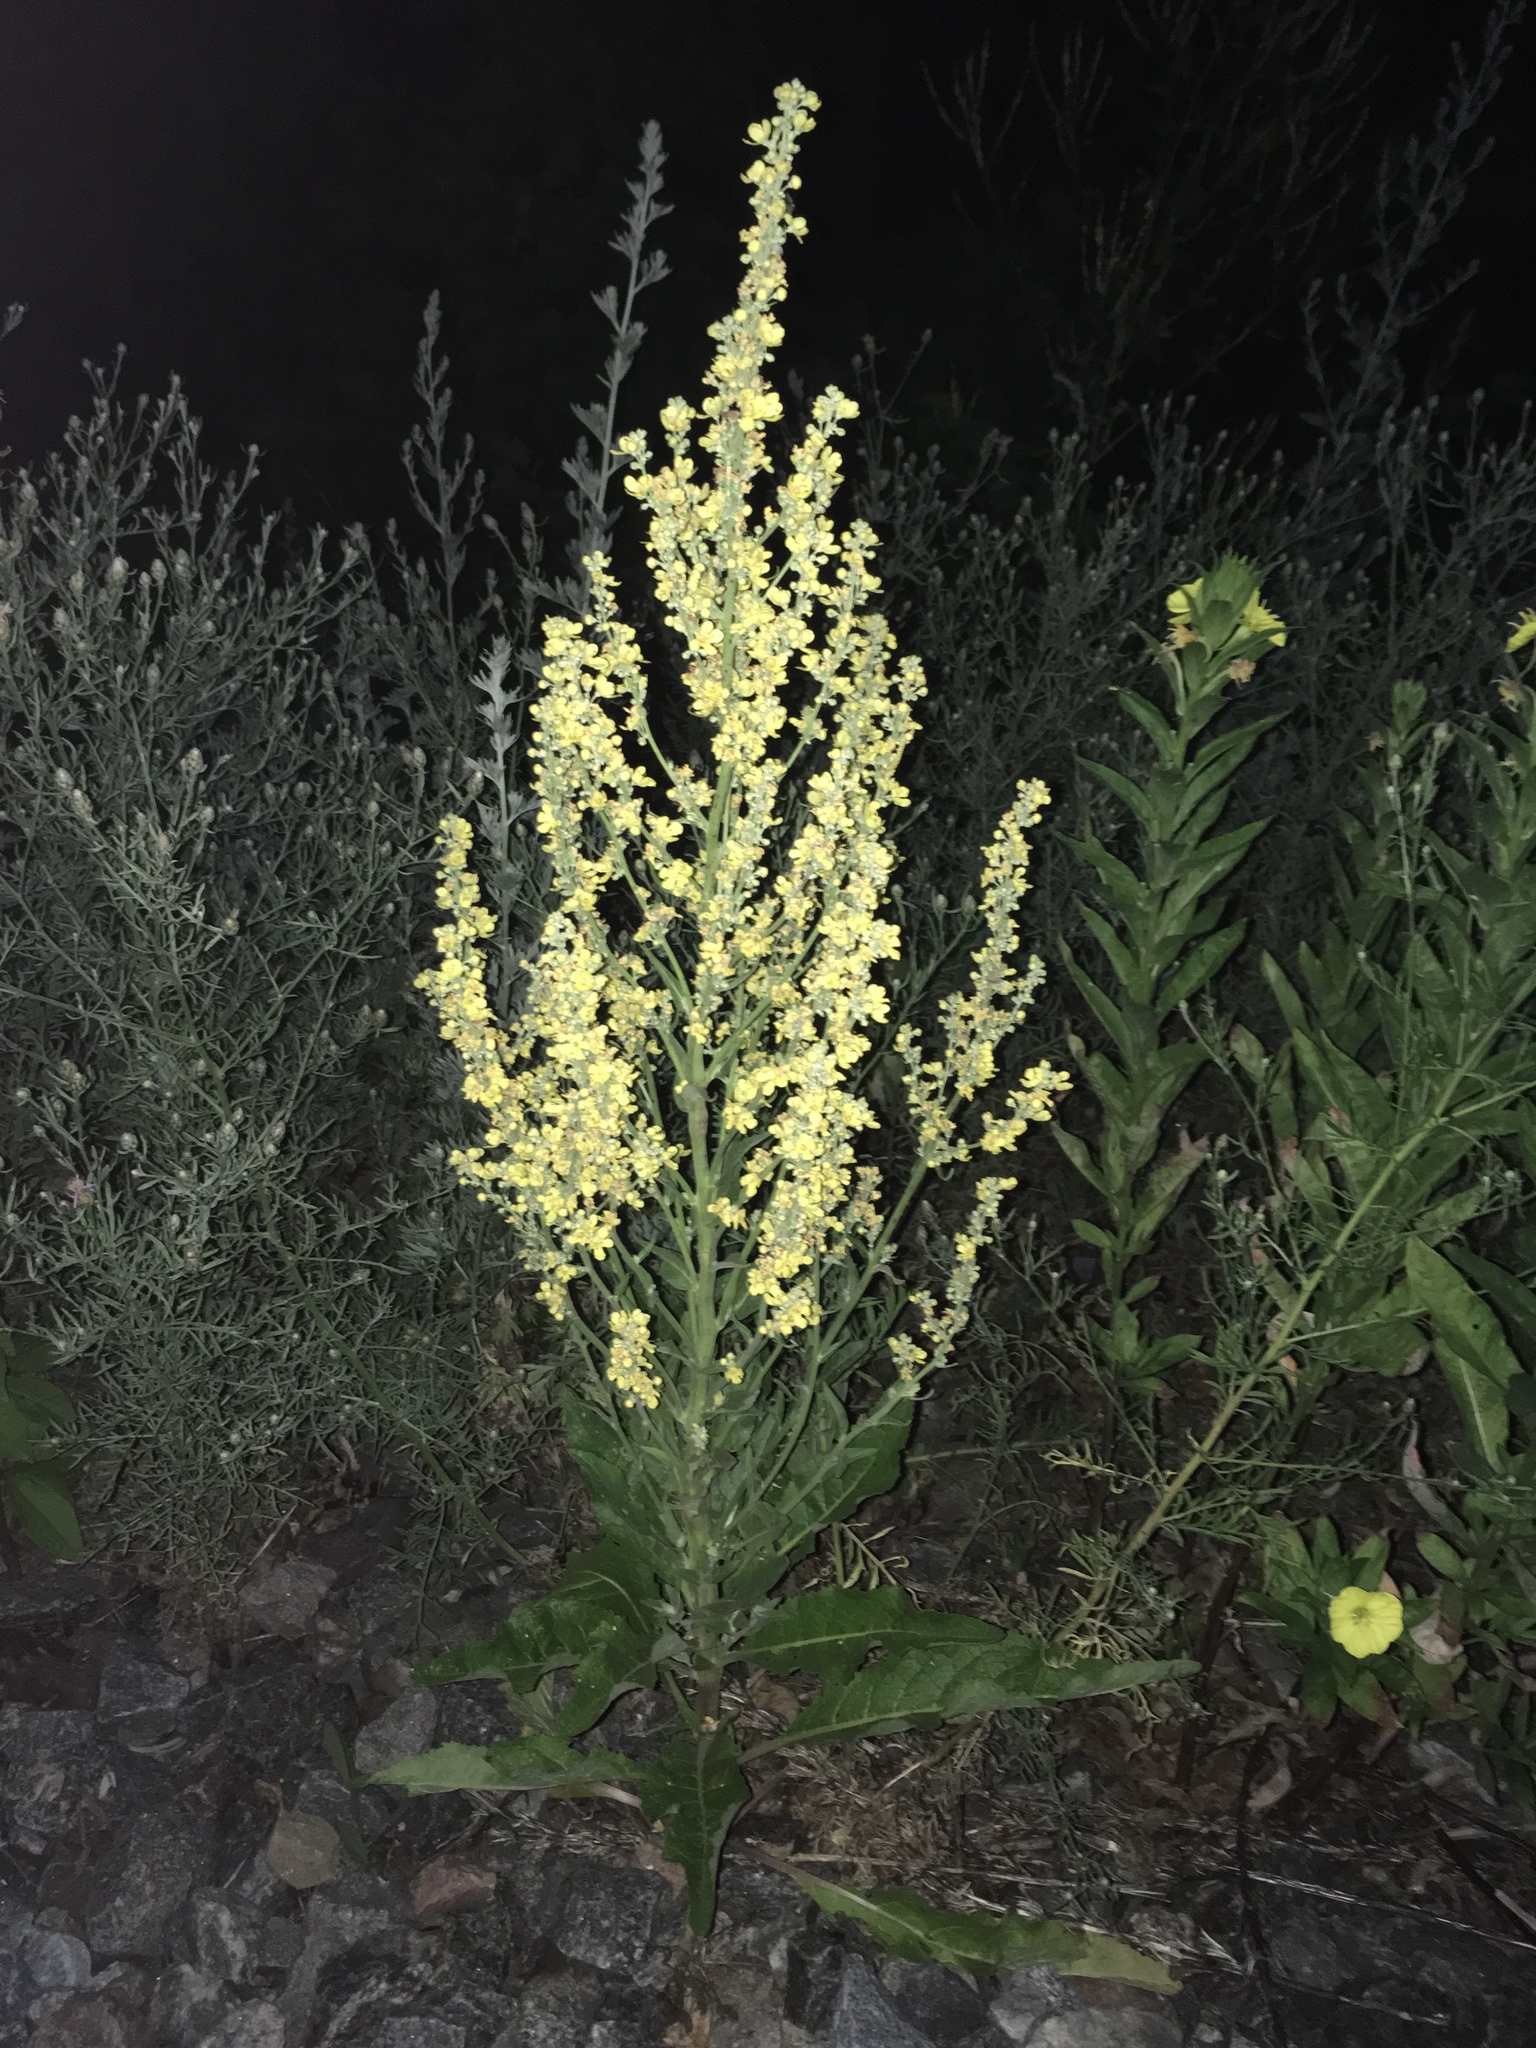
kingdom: Plantae
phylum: Tracheophyta
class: Magnoliopsida
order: Lamiales
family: Scrophulariaceae
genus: Verbascum
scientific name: Verbascum lychnitis
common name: White mullein
